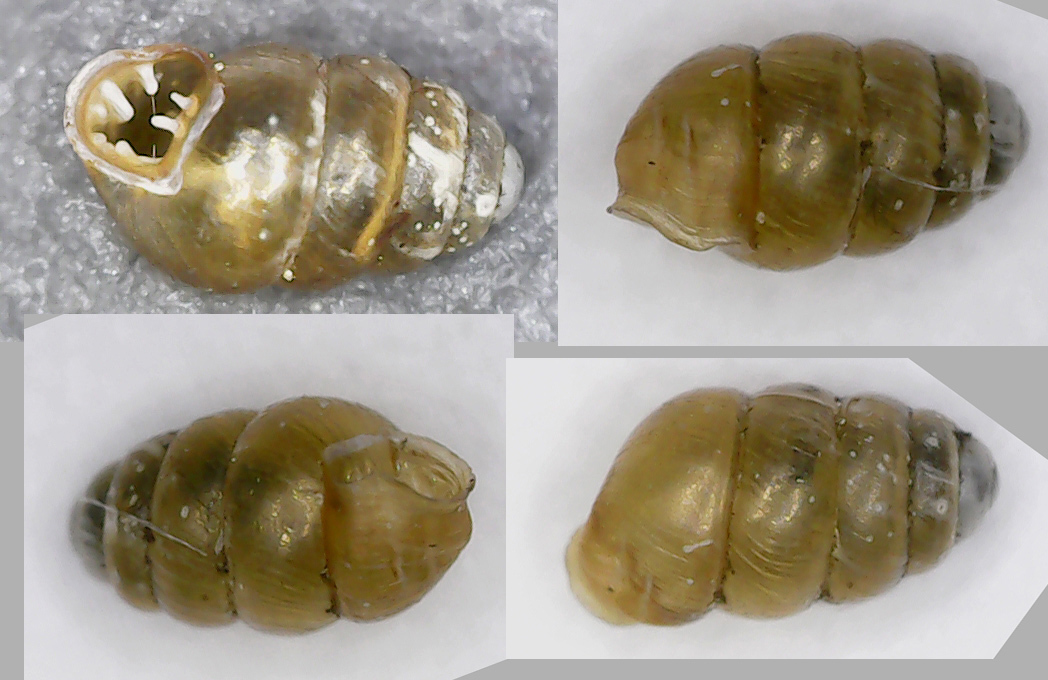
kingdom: Animalia
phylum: Mollusca
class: Gastropoda
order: Stylommatophora
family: Vertiginidae
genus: Vertigo
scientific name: Vertigo pusilla
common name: Wall whorl snail
